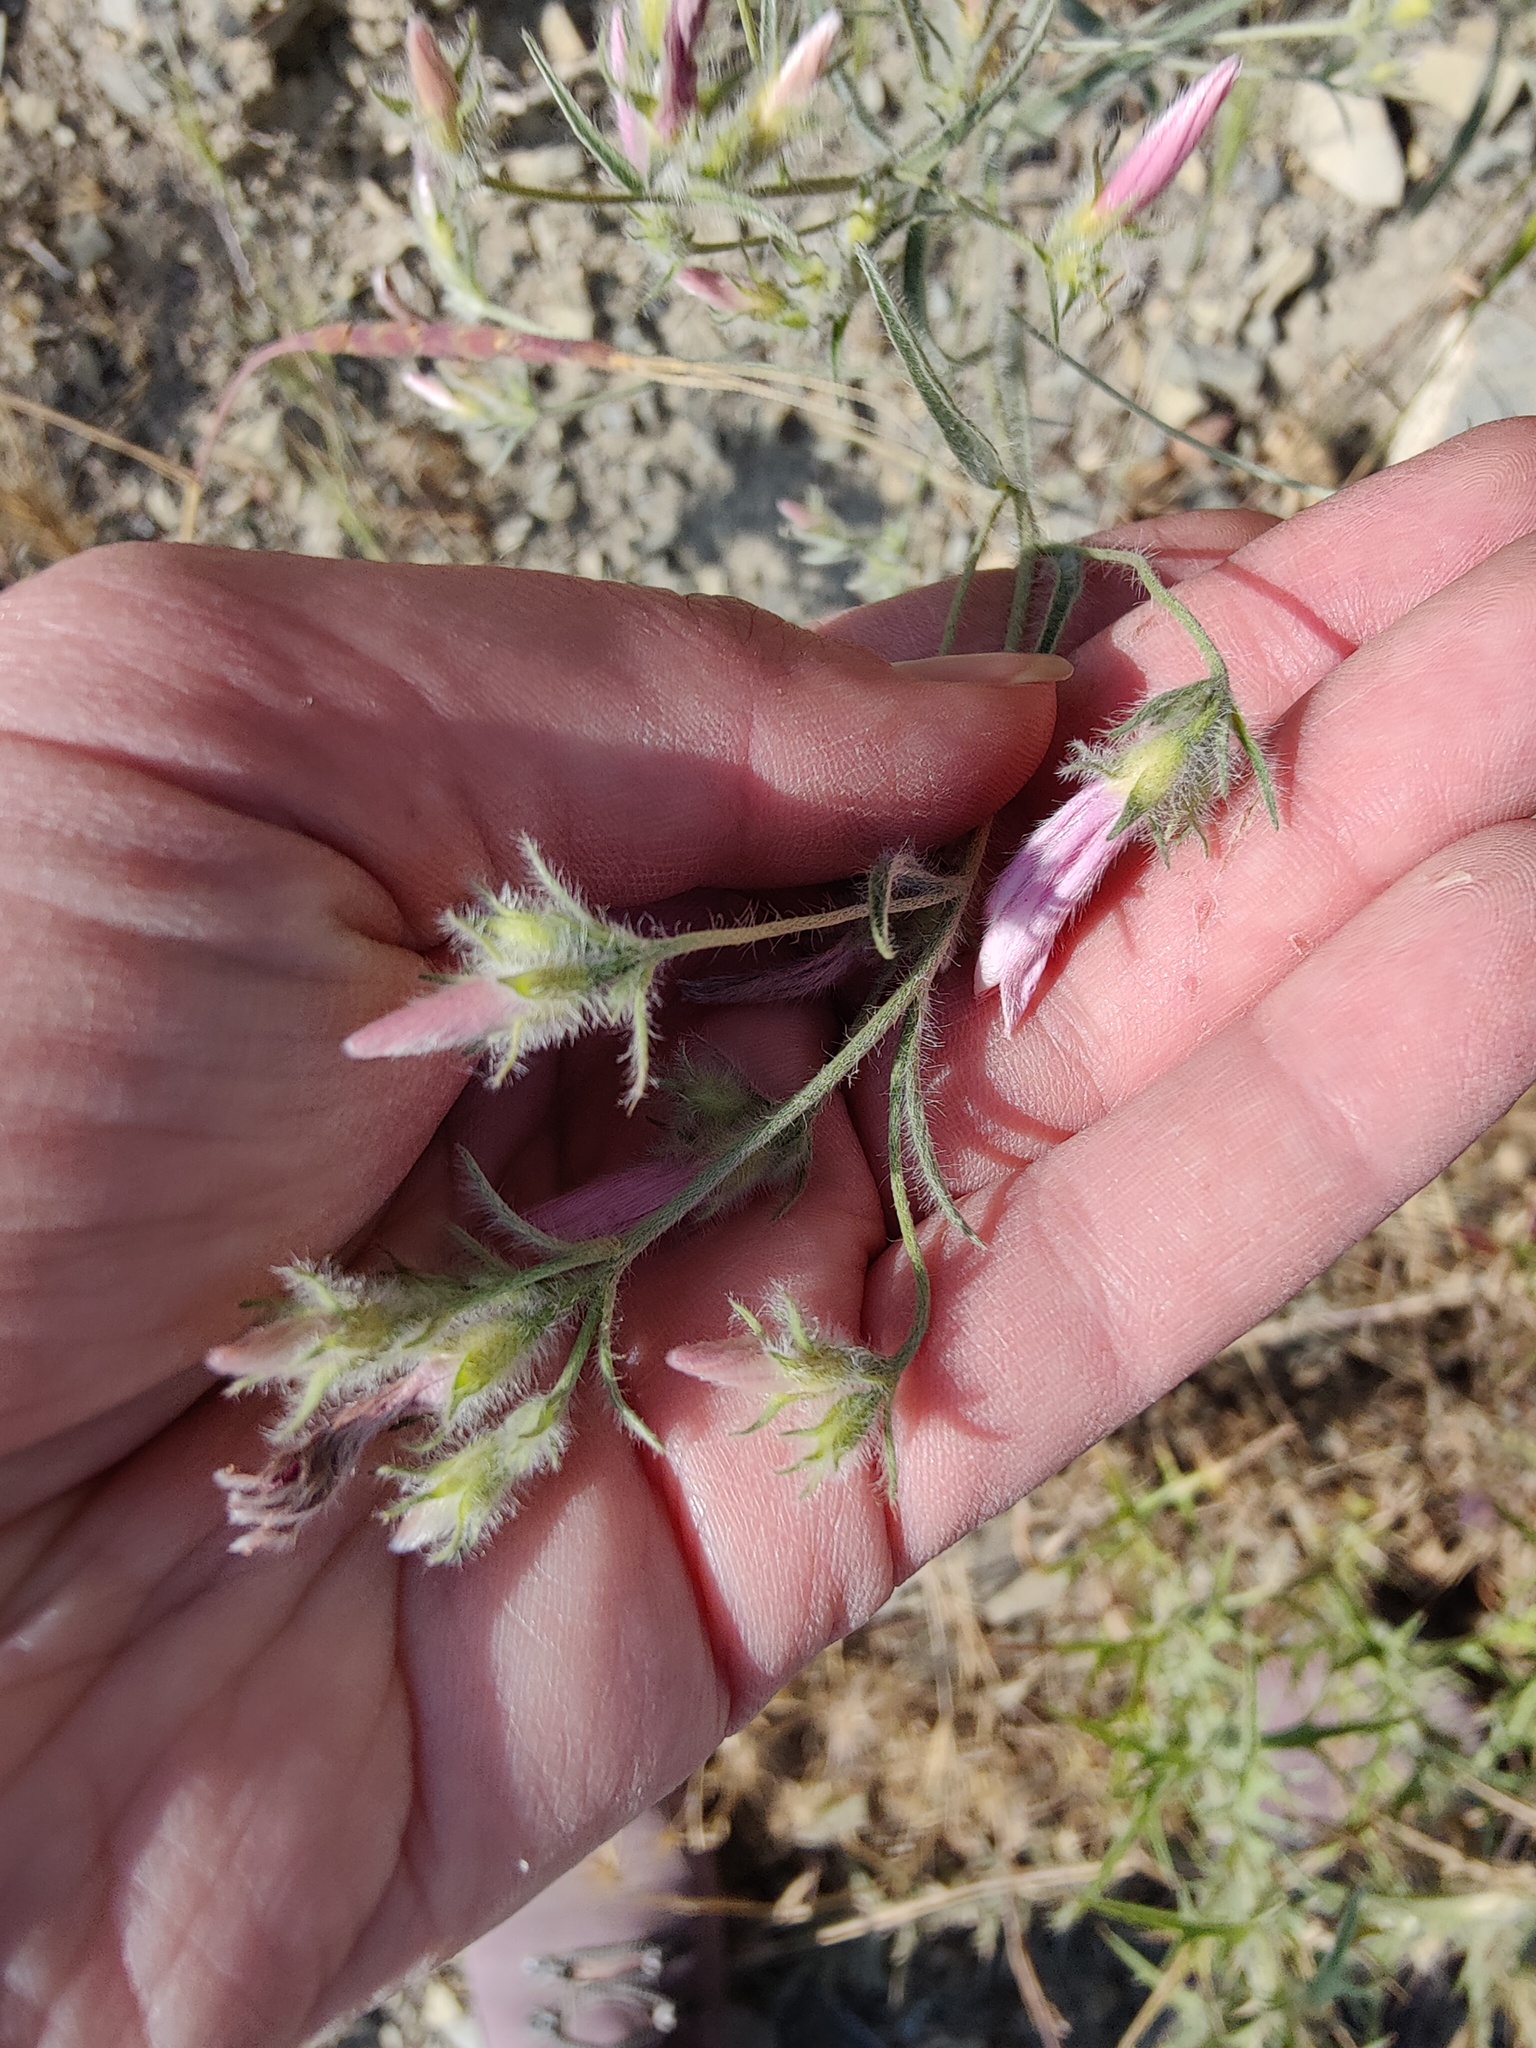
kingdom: Plantae
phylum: Tracheophyta
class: Magnoliopsida
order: Solanales
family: Convolvulaceae
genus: Convolvulus
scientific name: Convolvulus cantabrica
